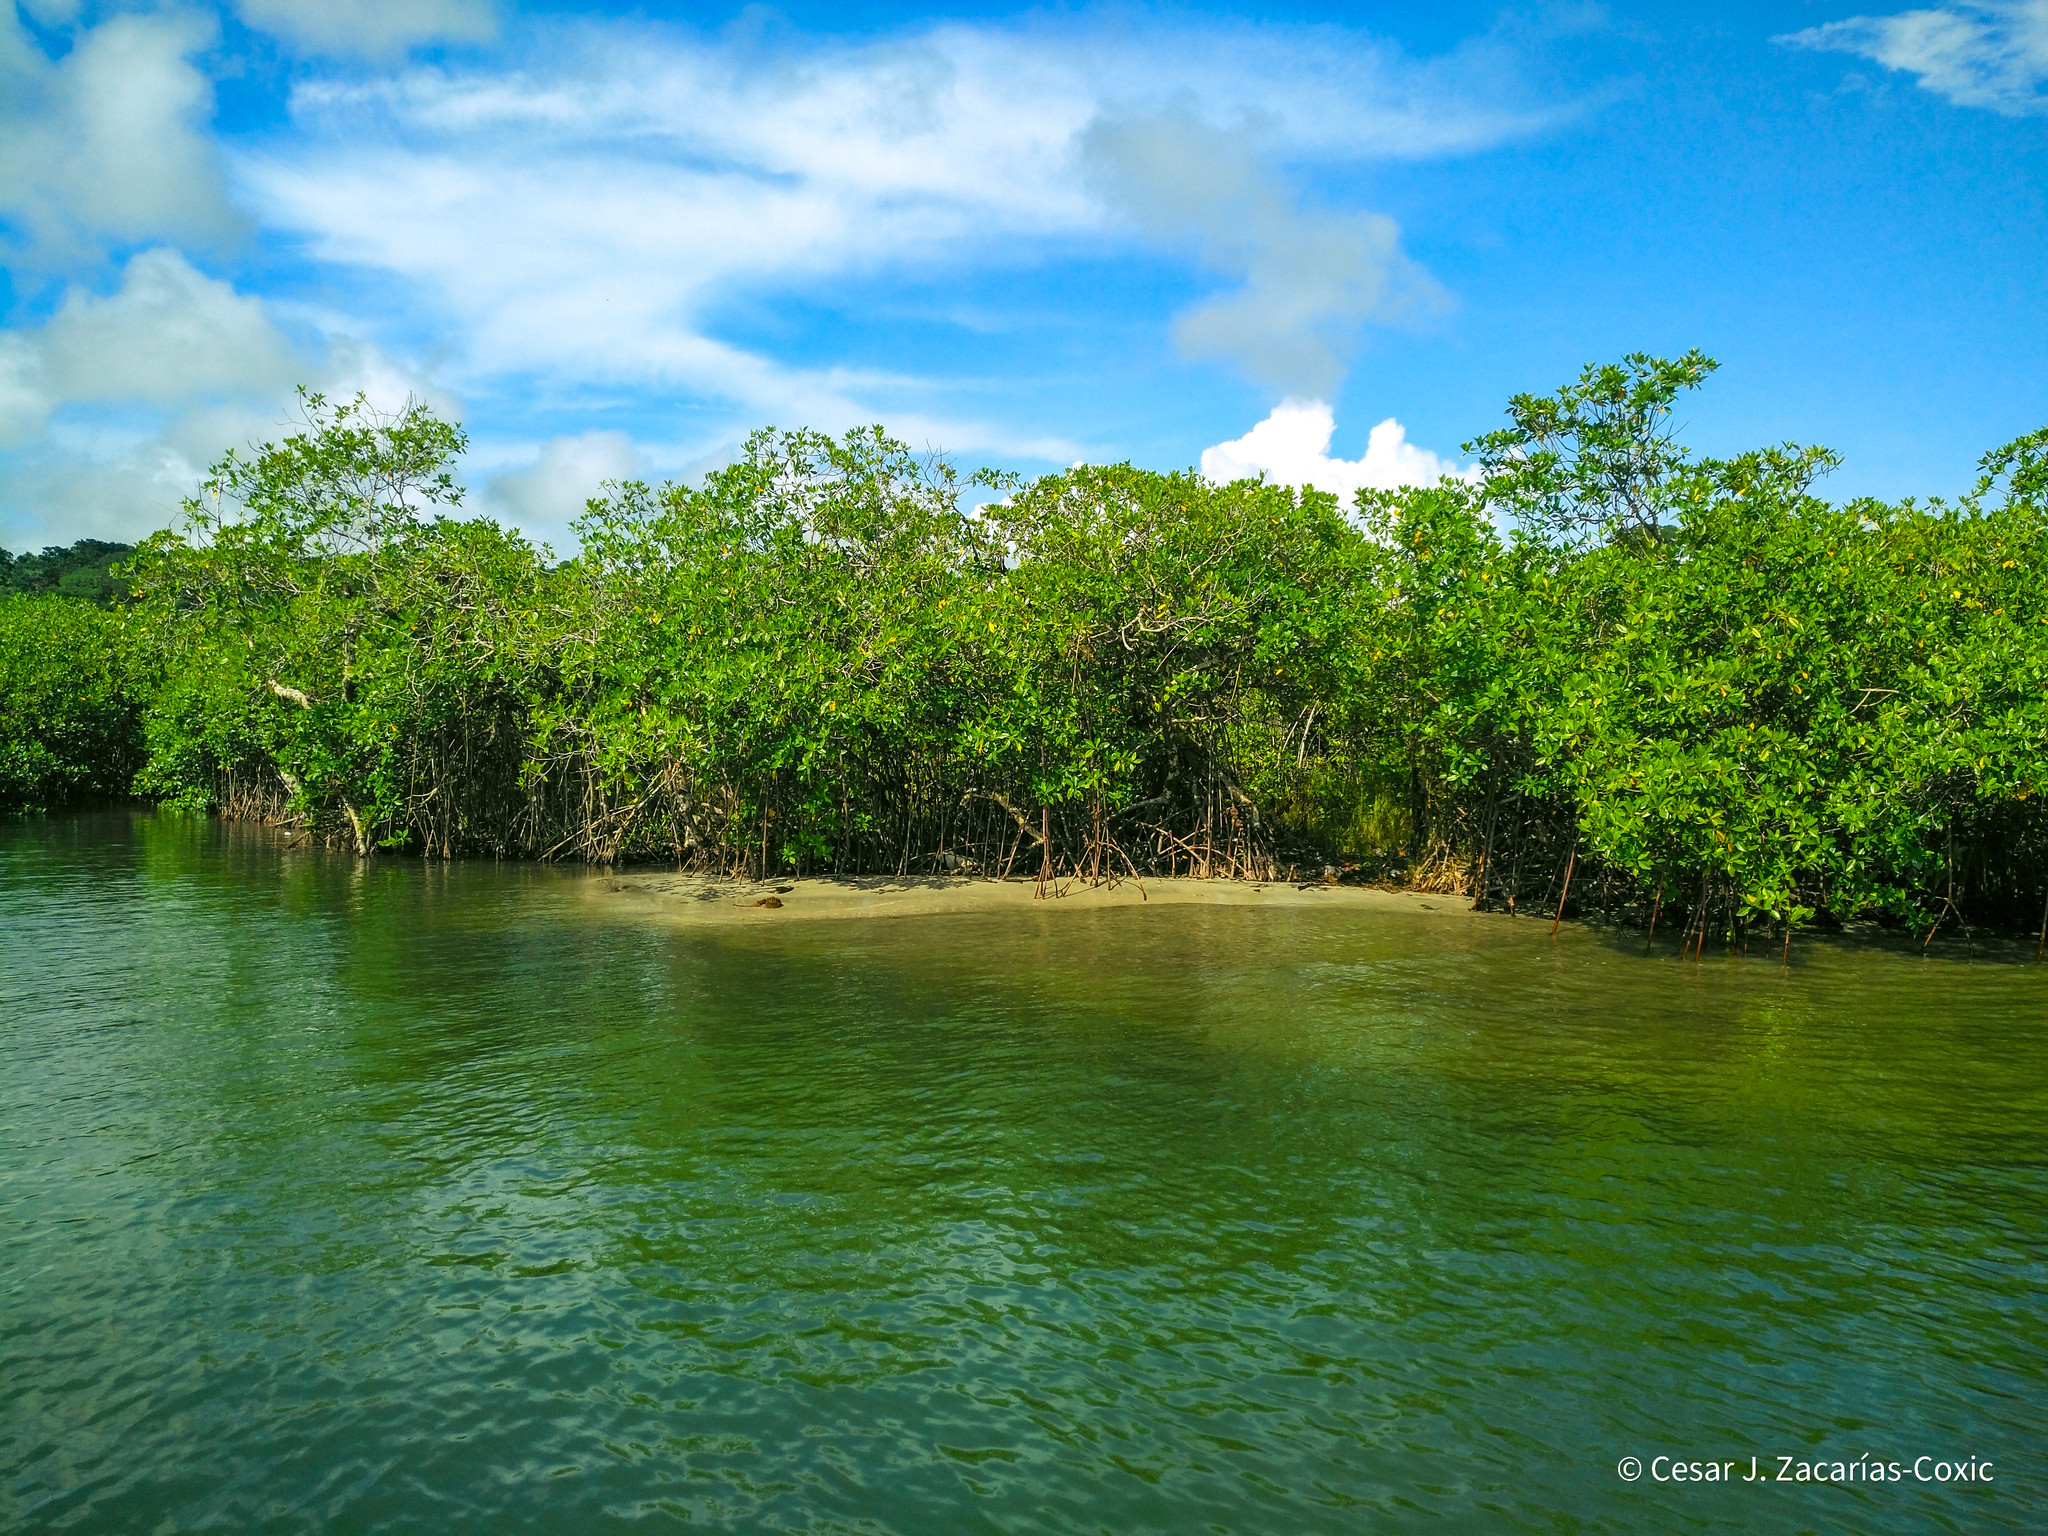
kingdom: Plantae
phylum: Tracheophyta
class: Magnoliopsida
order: Malpighiales
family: Rhizophoraceae
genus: Rhizophora
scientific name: Rhizophora mangle
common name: Red mangrove
